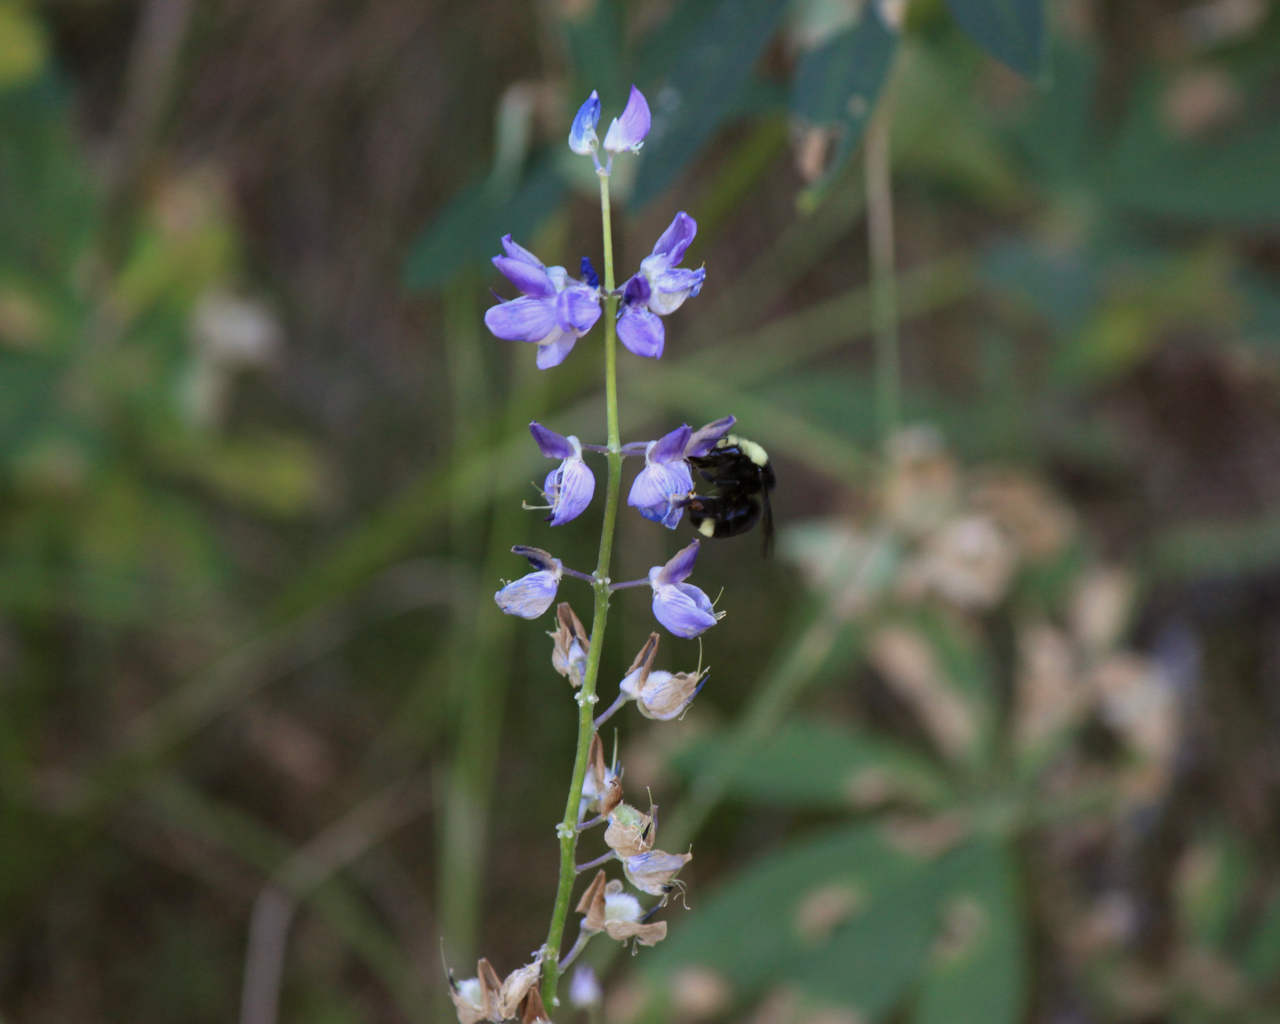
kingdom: Animalia
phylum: Arthropoda
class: Insecta
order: Hymenoptera
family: Apidae
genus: Bombus
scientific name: Bombus vosnesenskii
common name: Vosnesensky bumble bee
